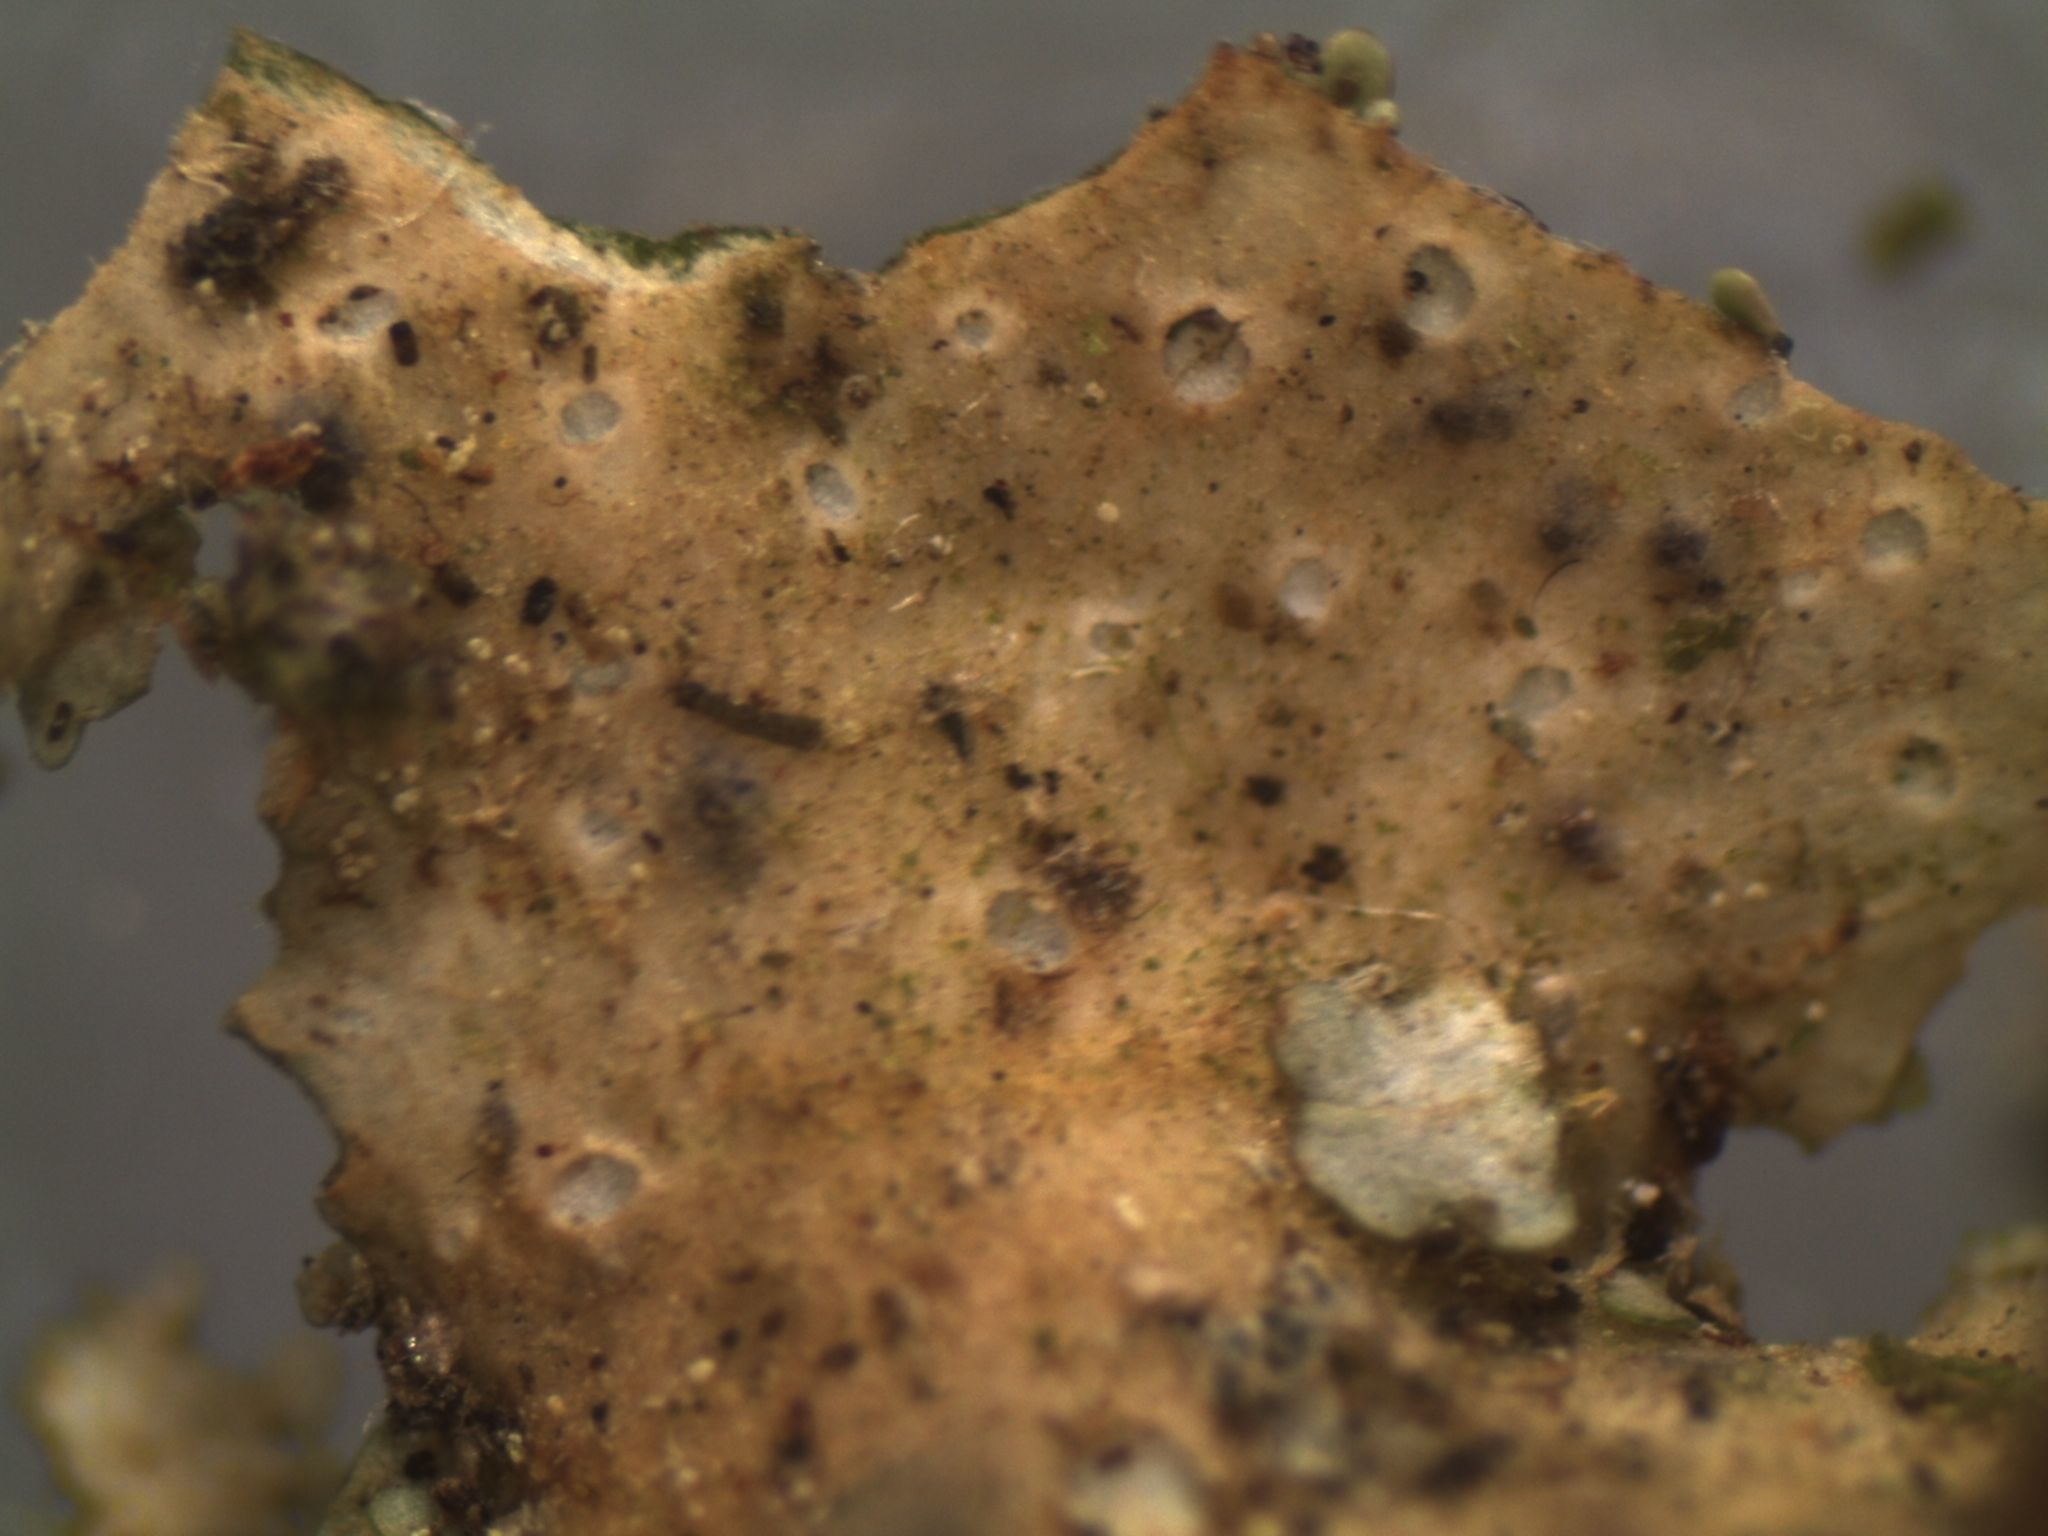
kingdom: Fungi
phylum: Ascomycota
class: Lecanoromycetes
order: Peltigerales
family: Lobariaceae
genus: Sticta
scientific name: Sticta martinii
